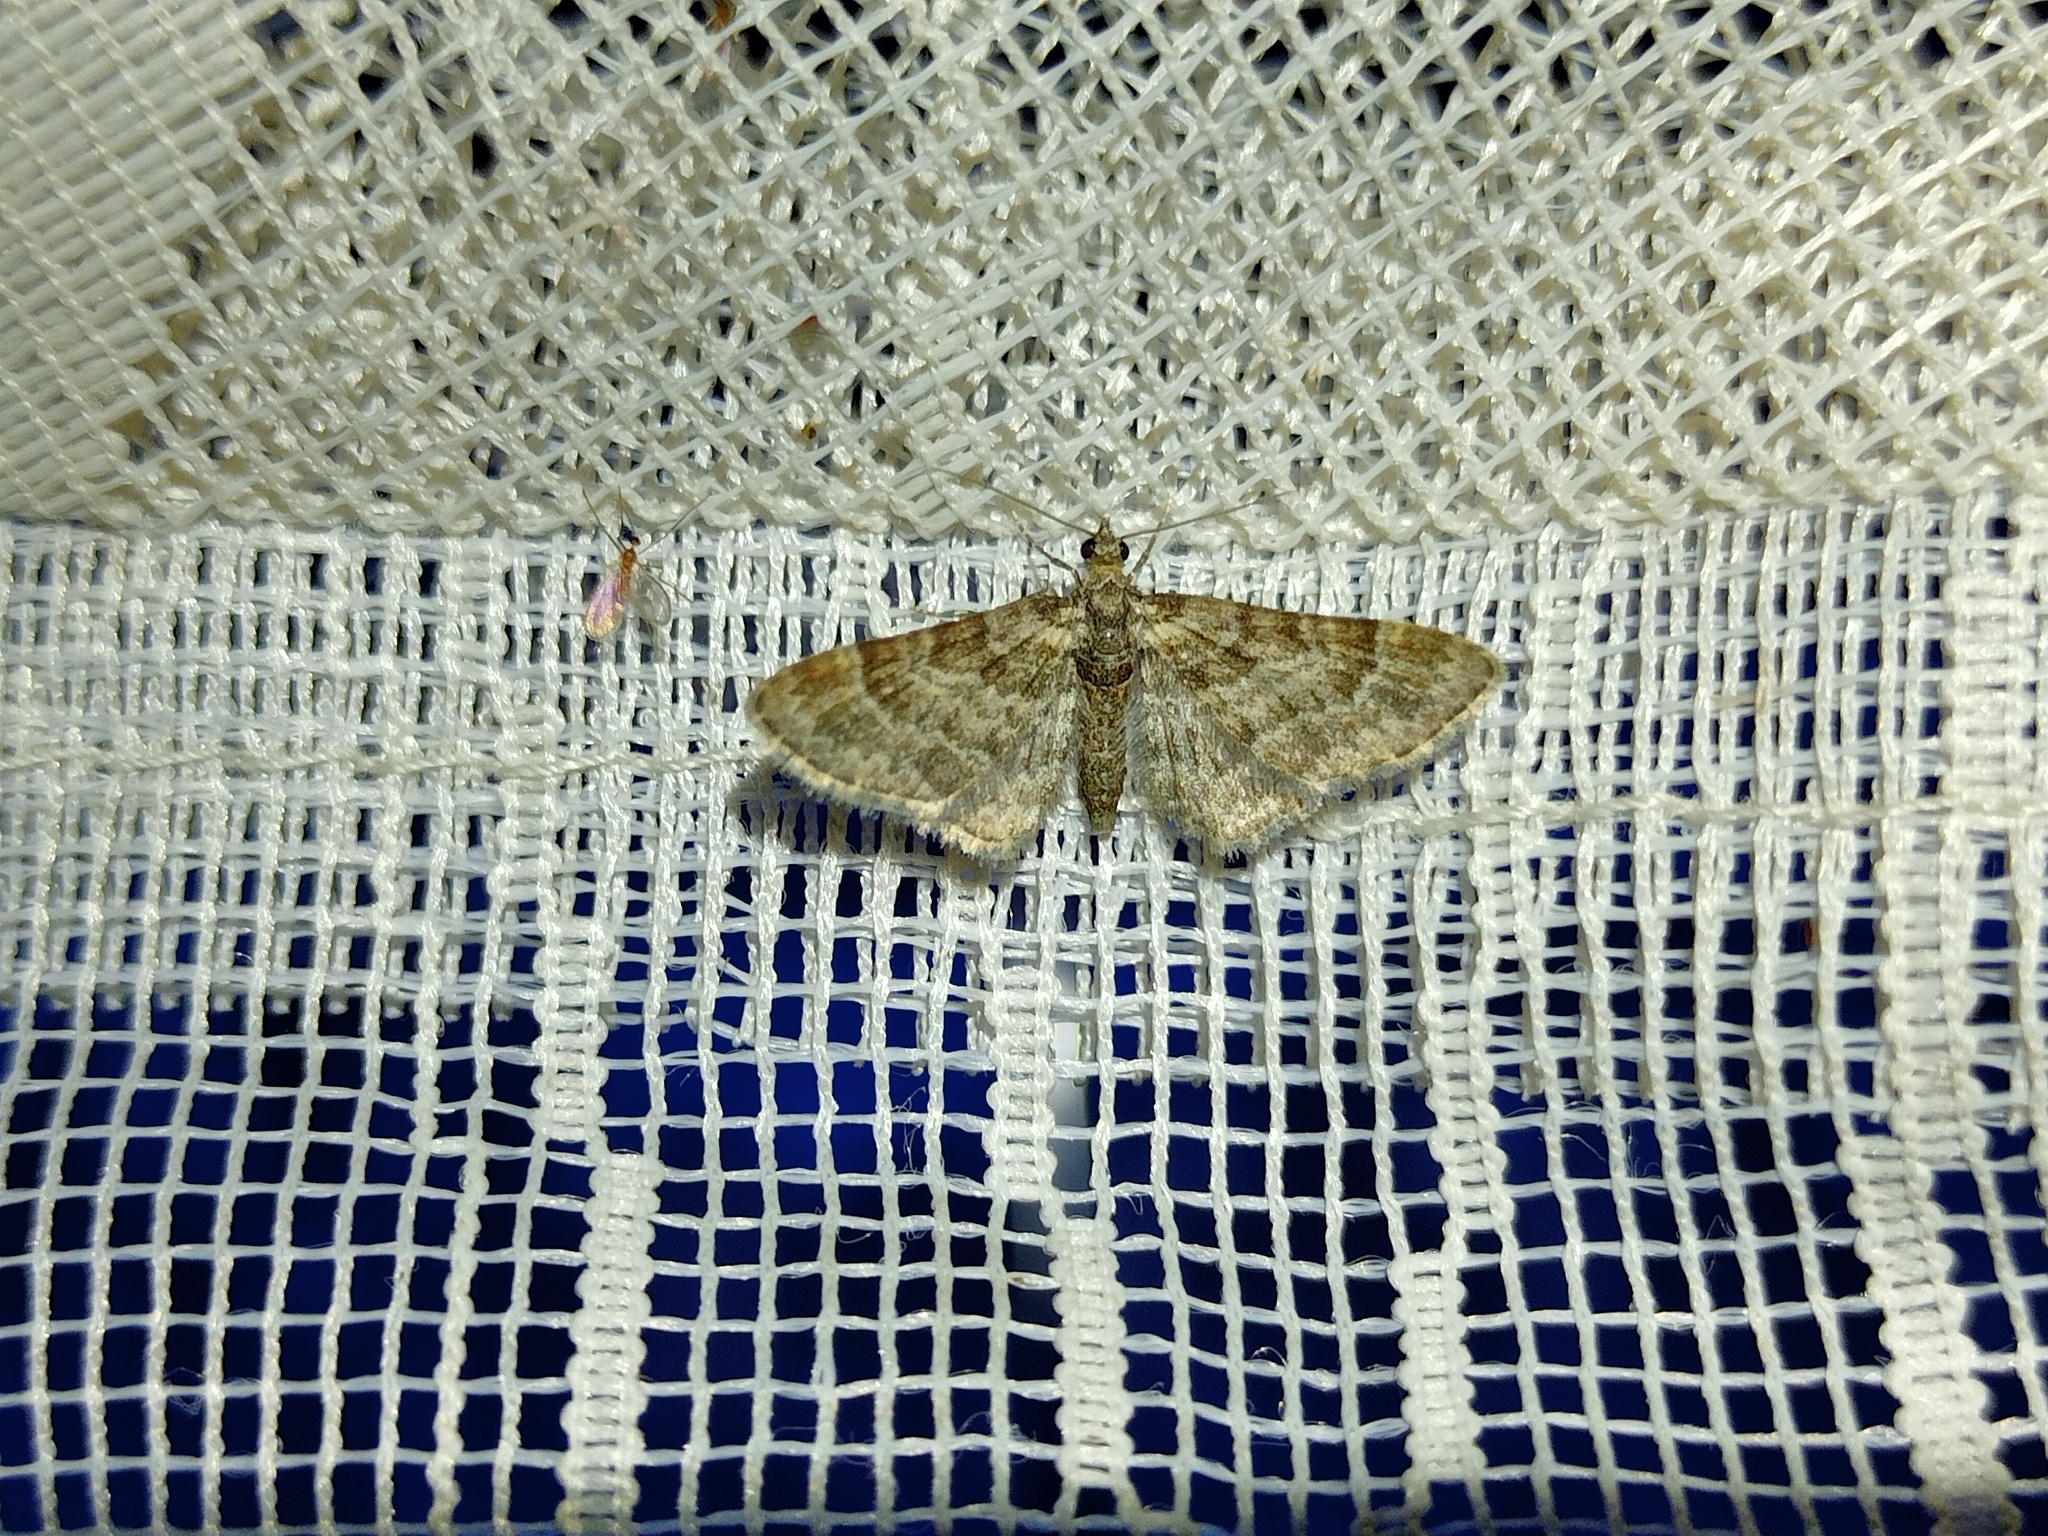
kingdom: Animalia
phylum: Arthropoda
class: Insecta
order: Lepidoptera
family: Geometridae
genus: Gymnoscelis
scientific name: Gymnoscelis rufifasciata
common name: Double-striped pug
